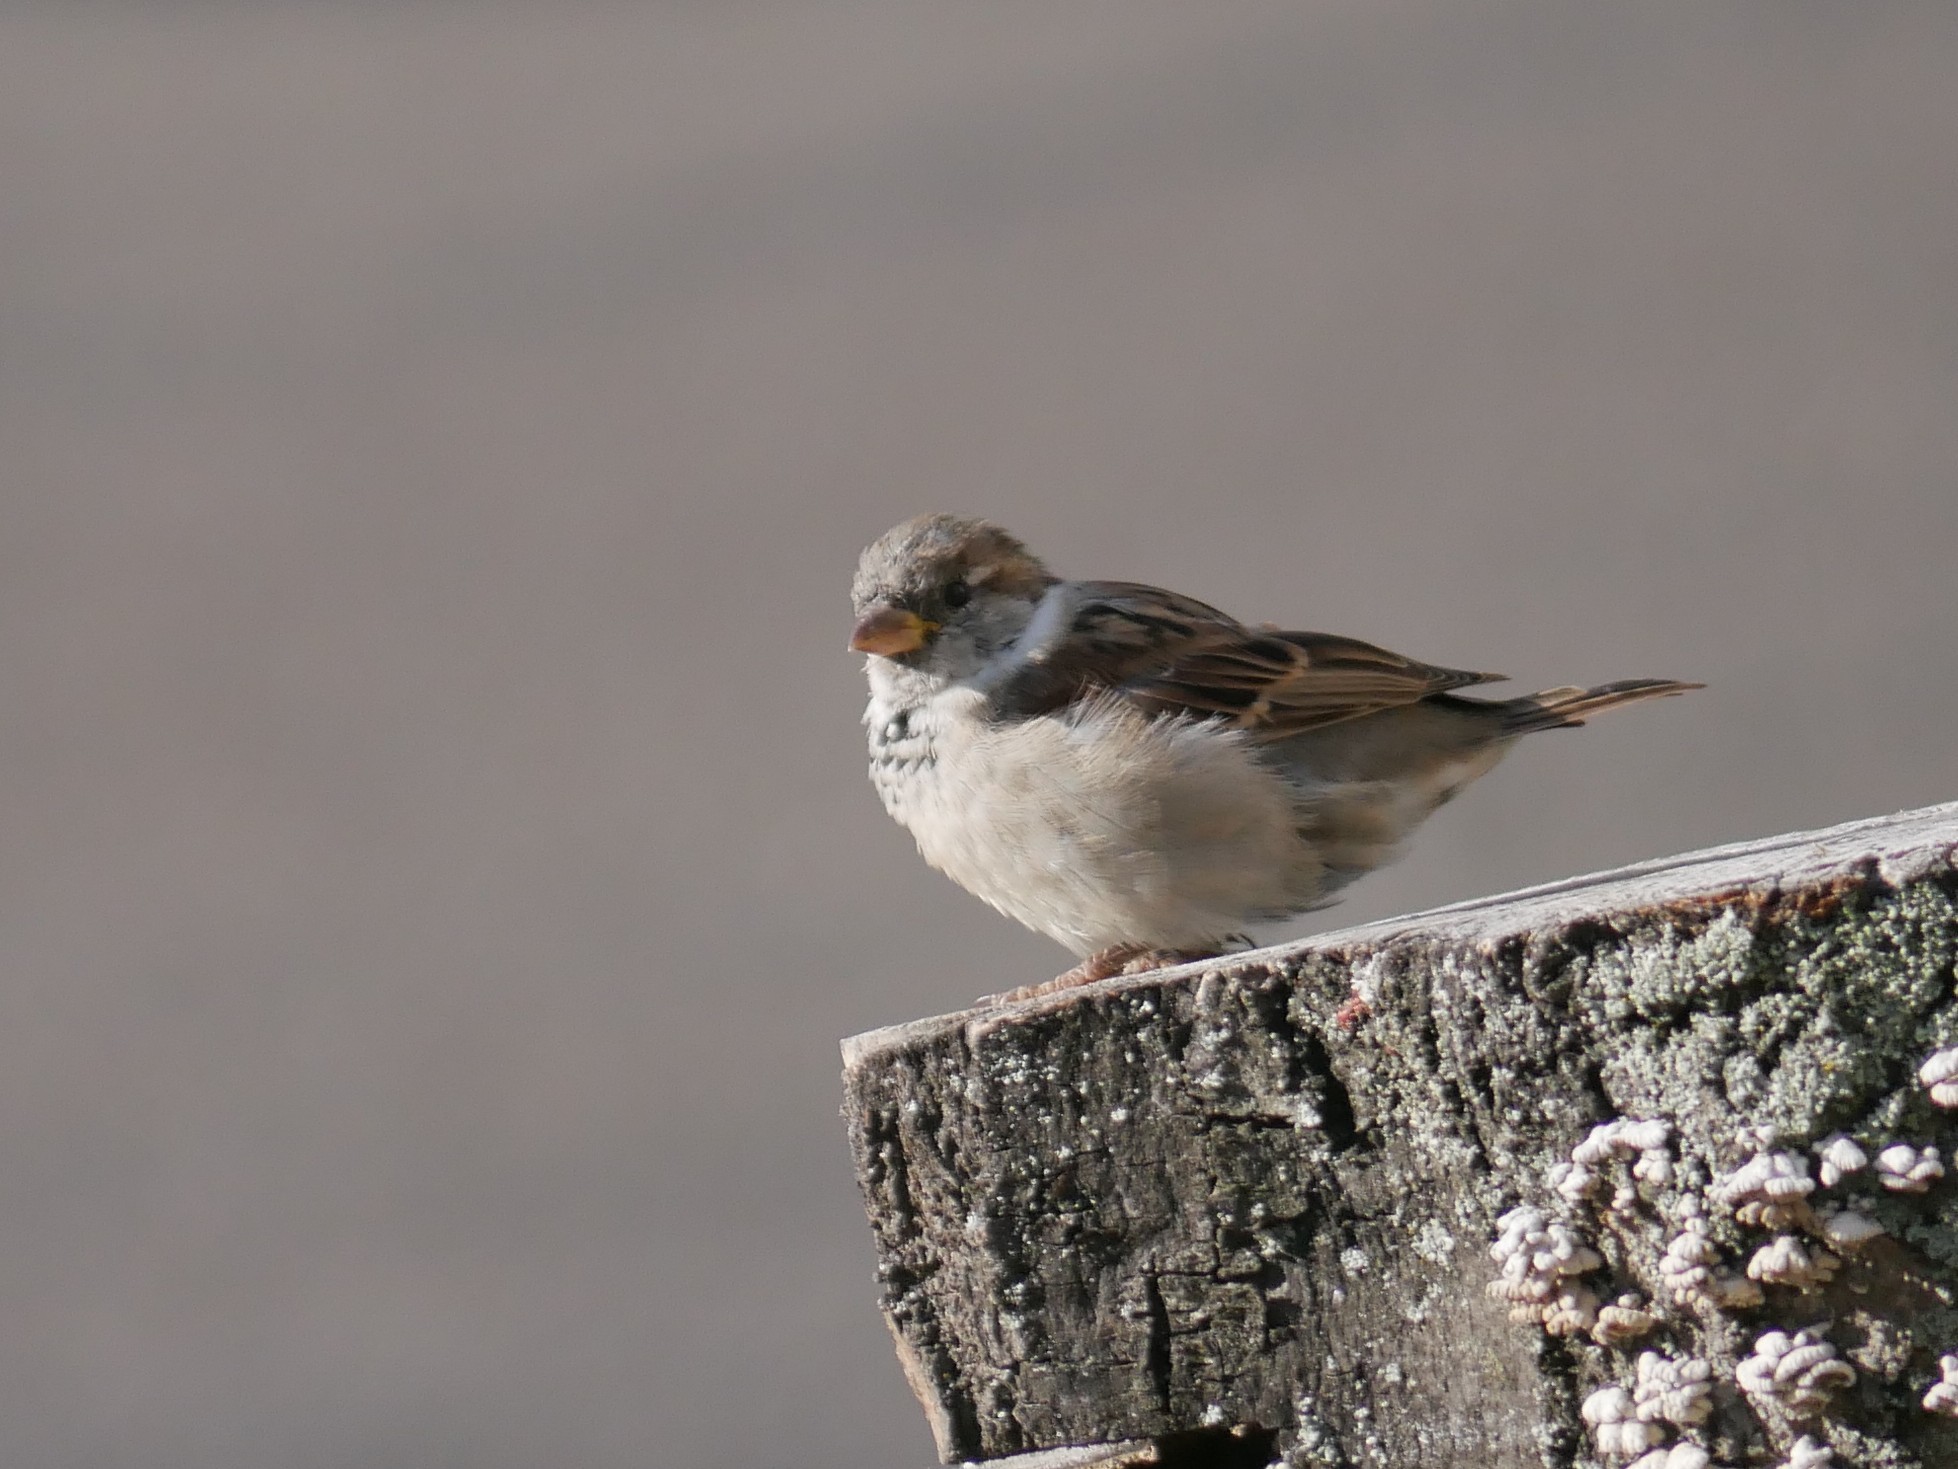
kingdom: Animalia
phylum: Chordata
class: Aves
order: Passeriformes
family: Passeridae
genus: Passer
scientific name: Passer domesticus
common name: House sparrow
